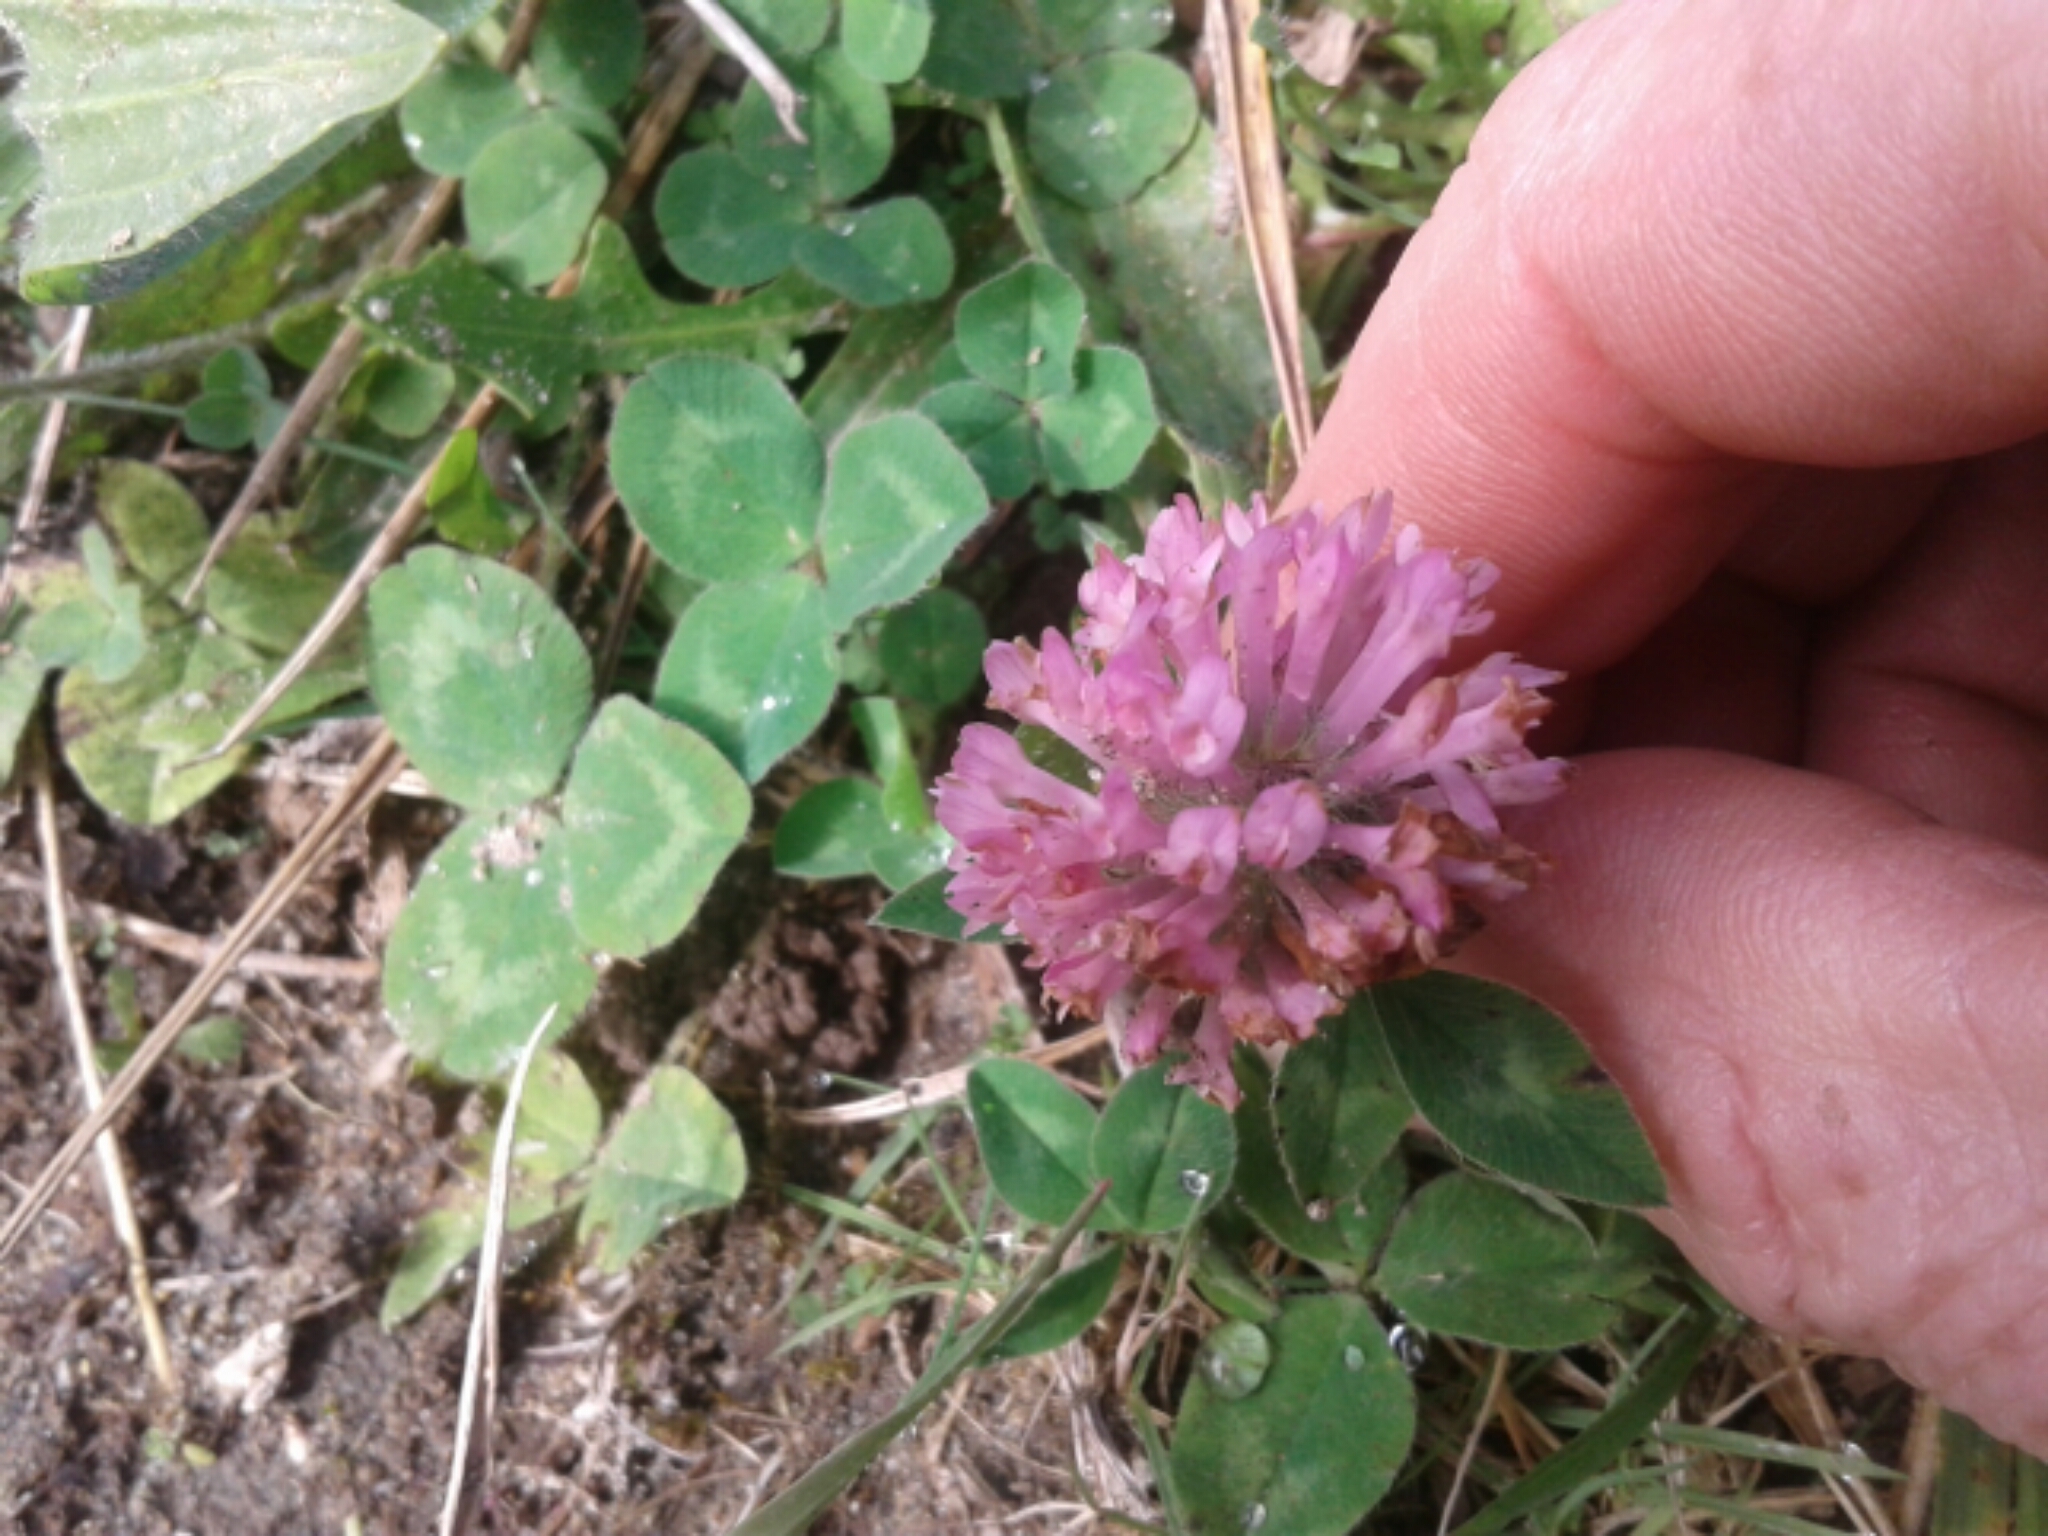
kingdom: Plantae
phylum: Tracheophyta
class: Magnoliopsida
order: Fabales
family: Fabaceae
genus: Trifolium
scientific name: Trifolium pratense
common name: Red clover
